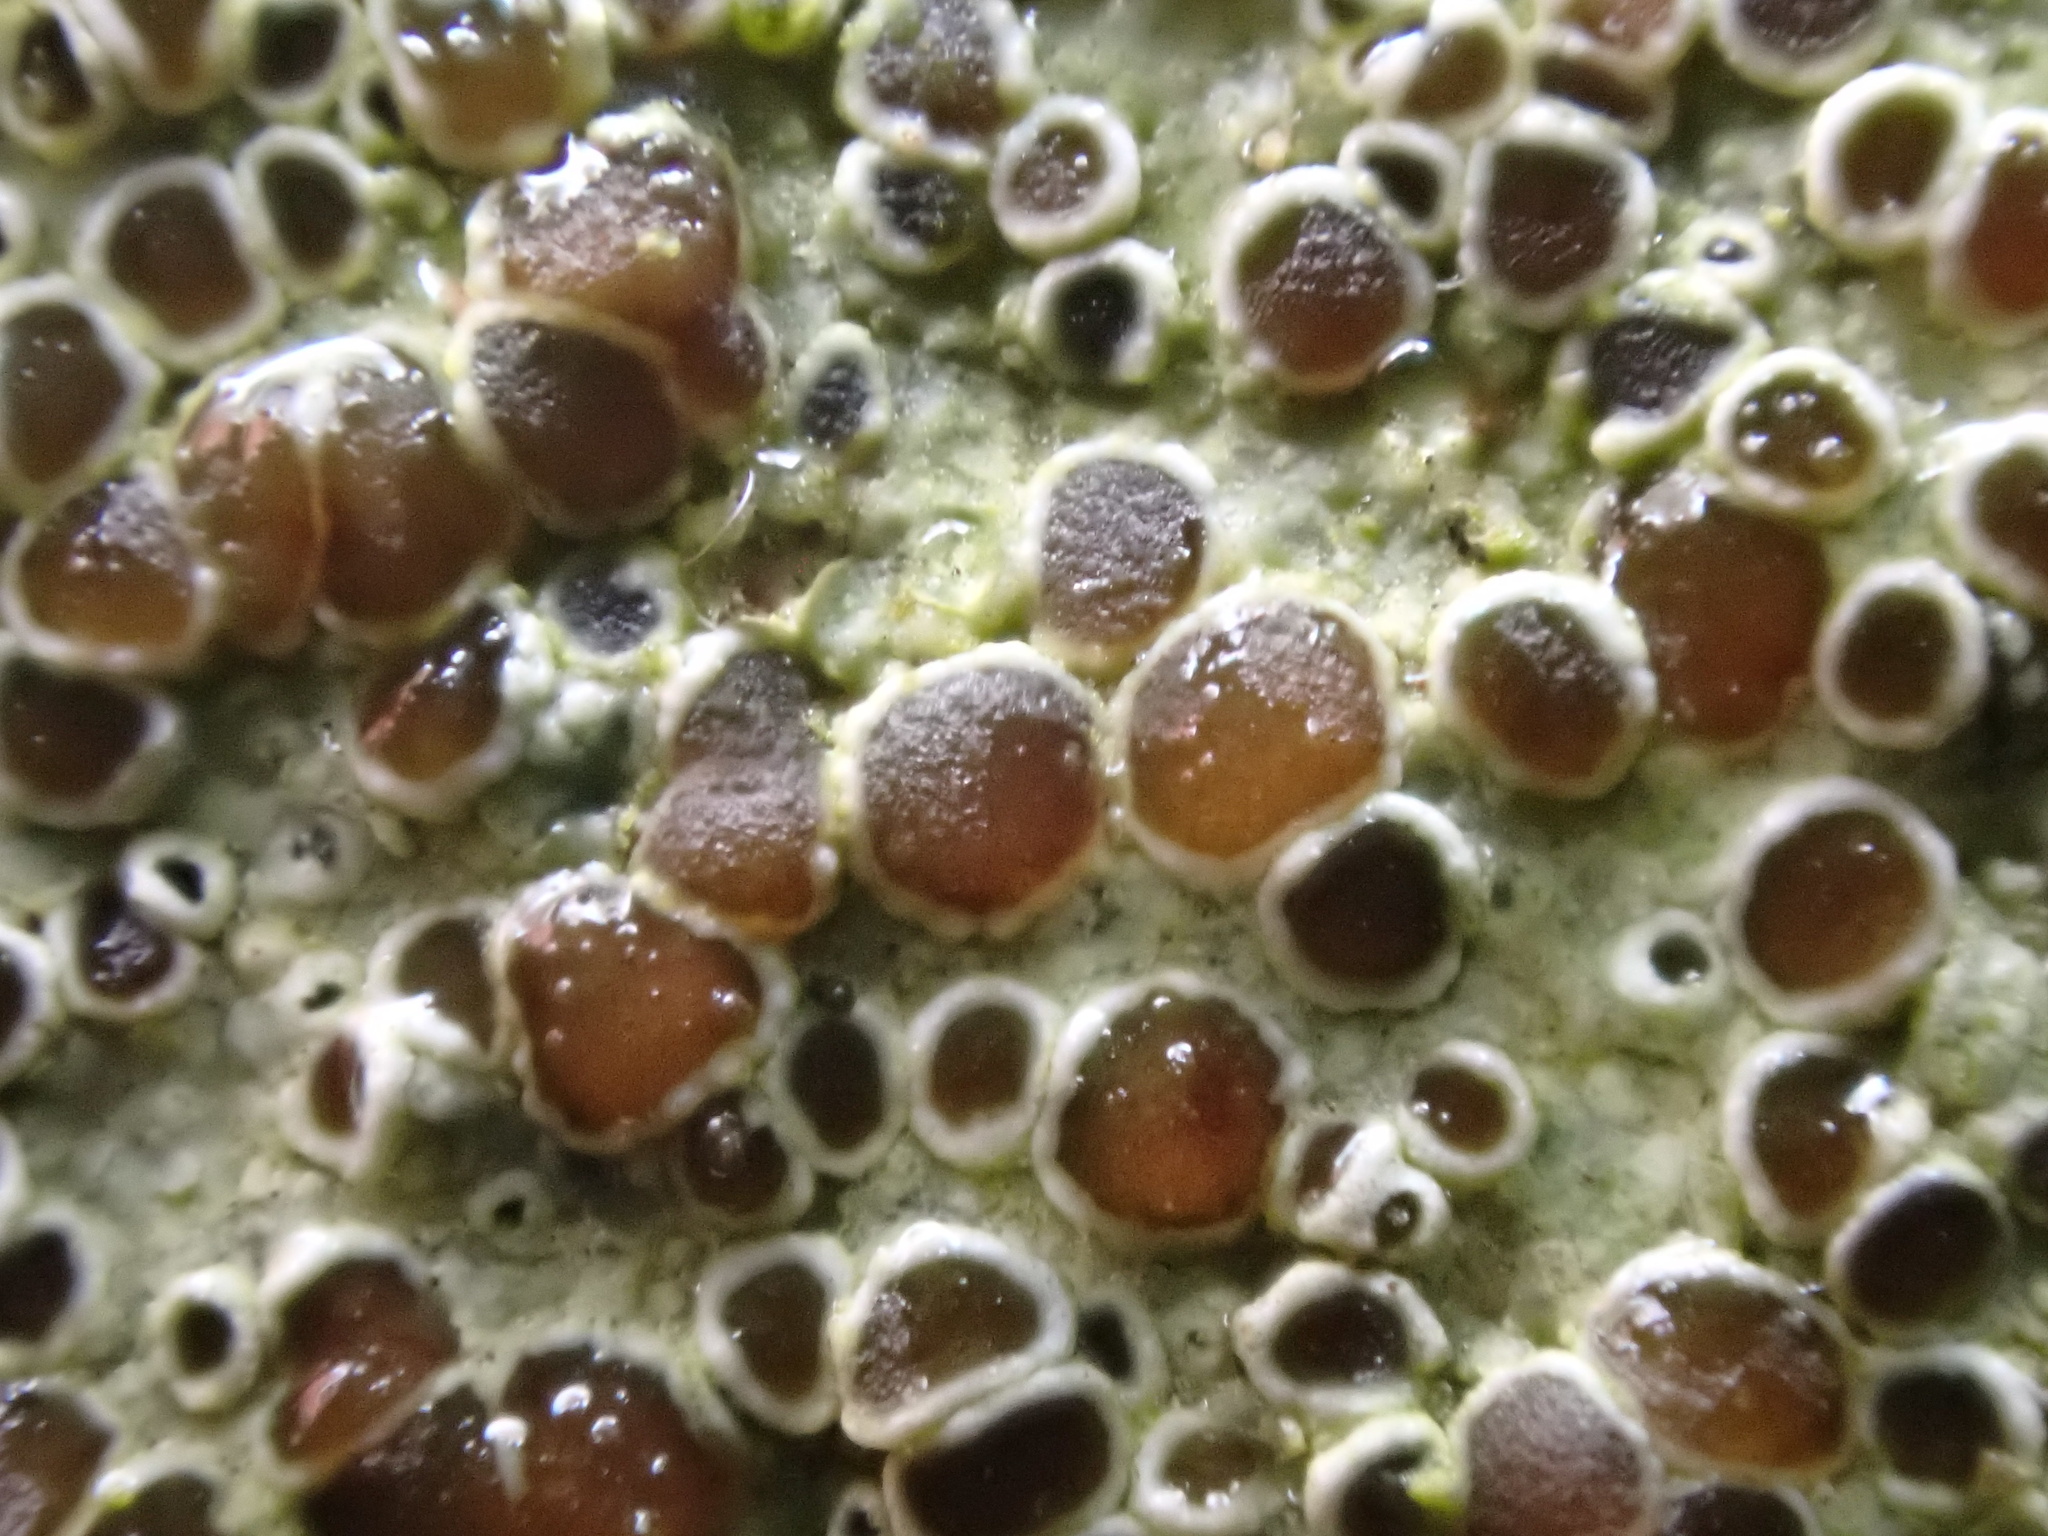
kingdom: Fungi
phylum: Ascomycota
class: Lecanoromycetes
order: Lecanorales
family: Lecanoraceae
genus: Lecanora
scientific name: Lecanora campestris
